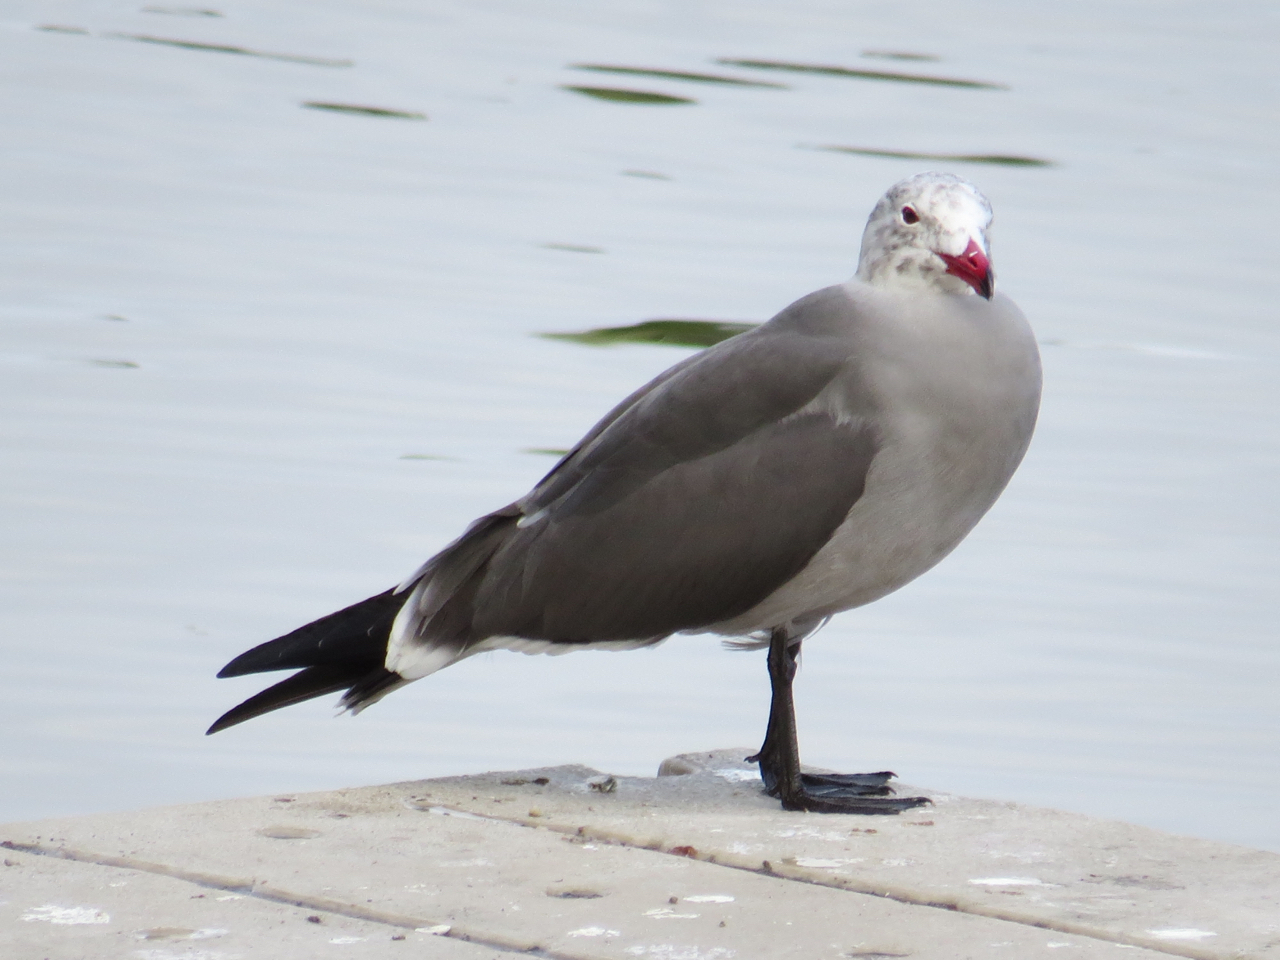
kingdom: Animalia
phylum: Chordata
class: Aves
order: Charadriiformes
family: Laridae
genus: Larus
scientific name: Larus heermanni
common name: Heermann's gull
